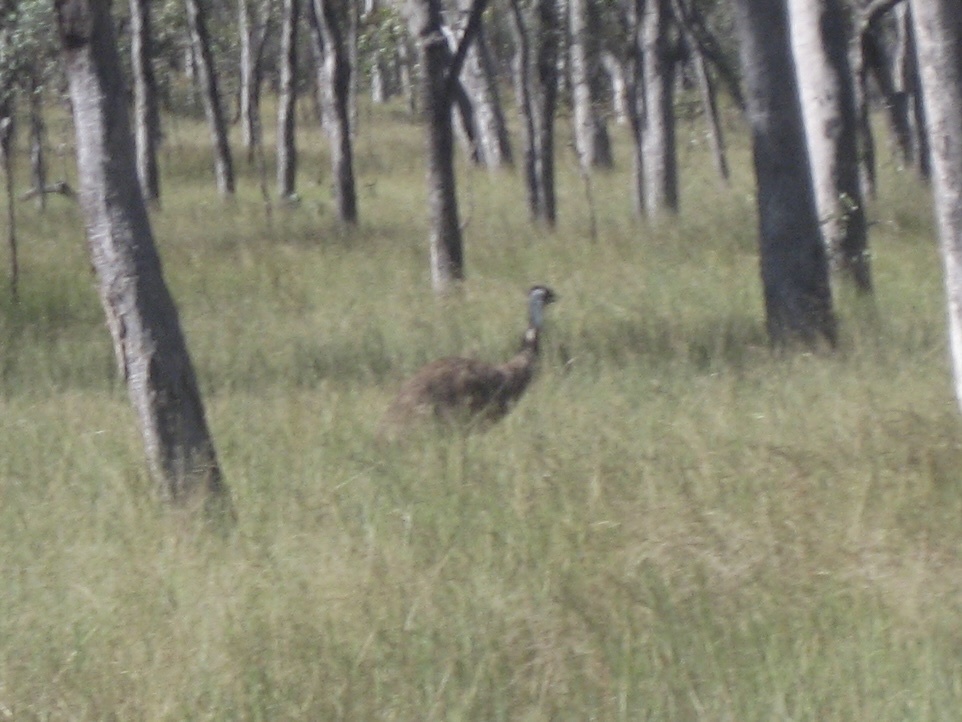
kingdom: Animalia
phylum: Chordata
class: Aves
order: Casuariiformes
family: Dromaiidae
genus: Dromaius
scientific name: Dromaius novaehollandiae
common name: Emu
